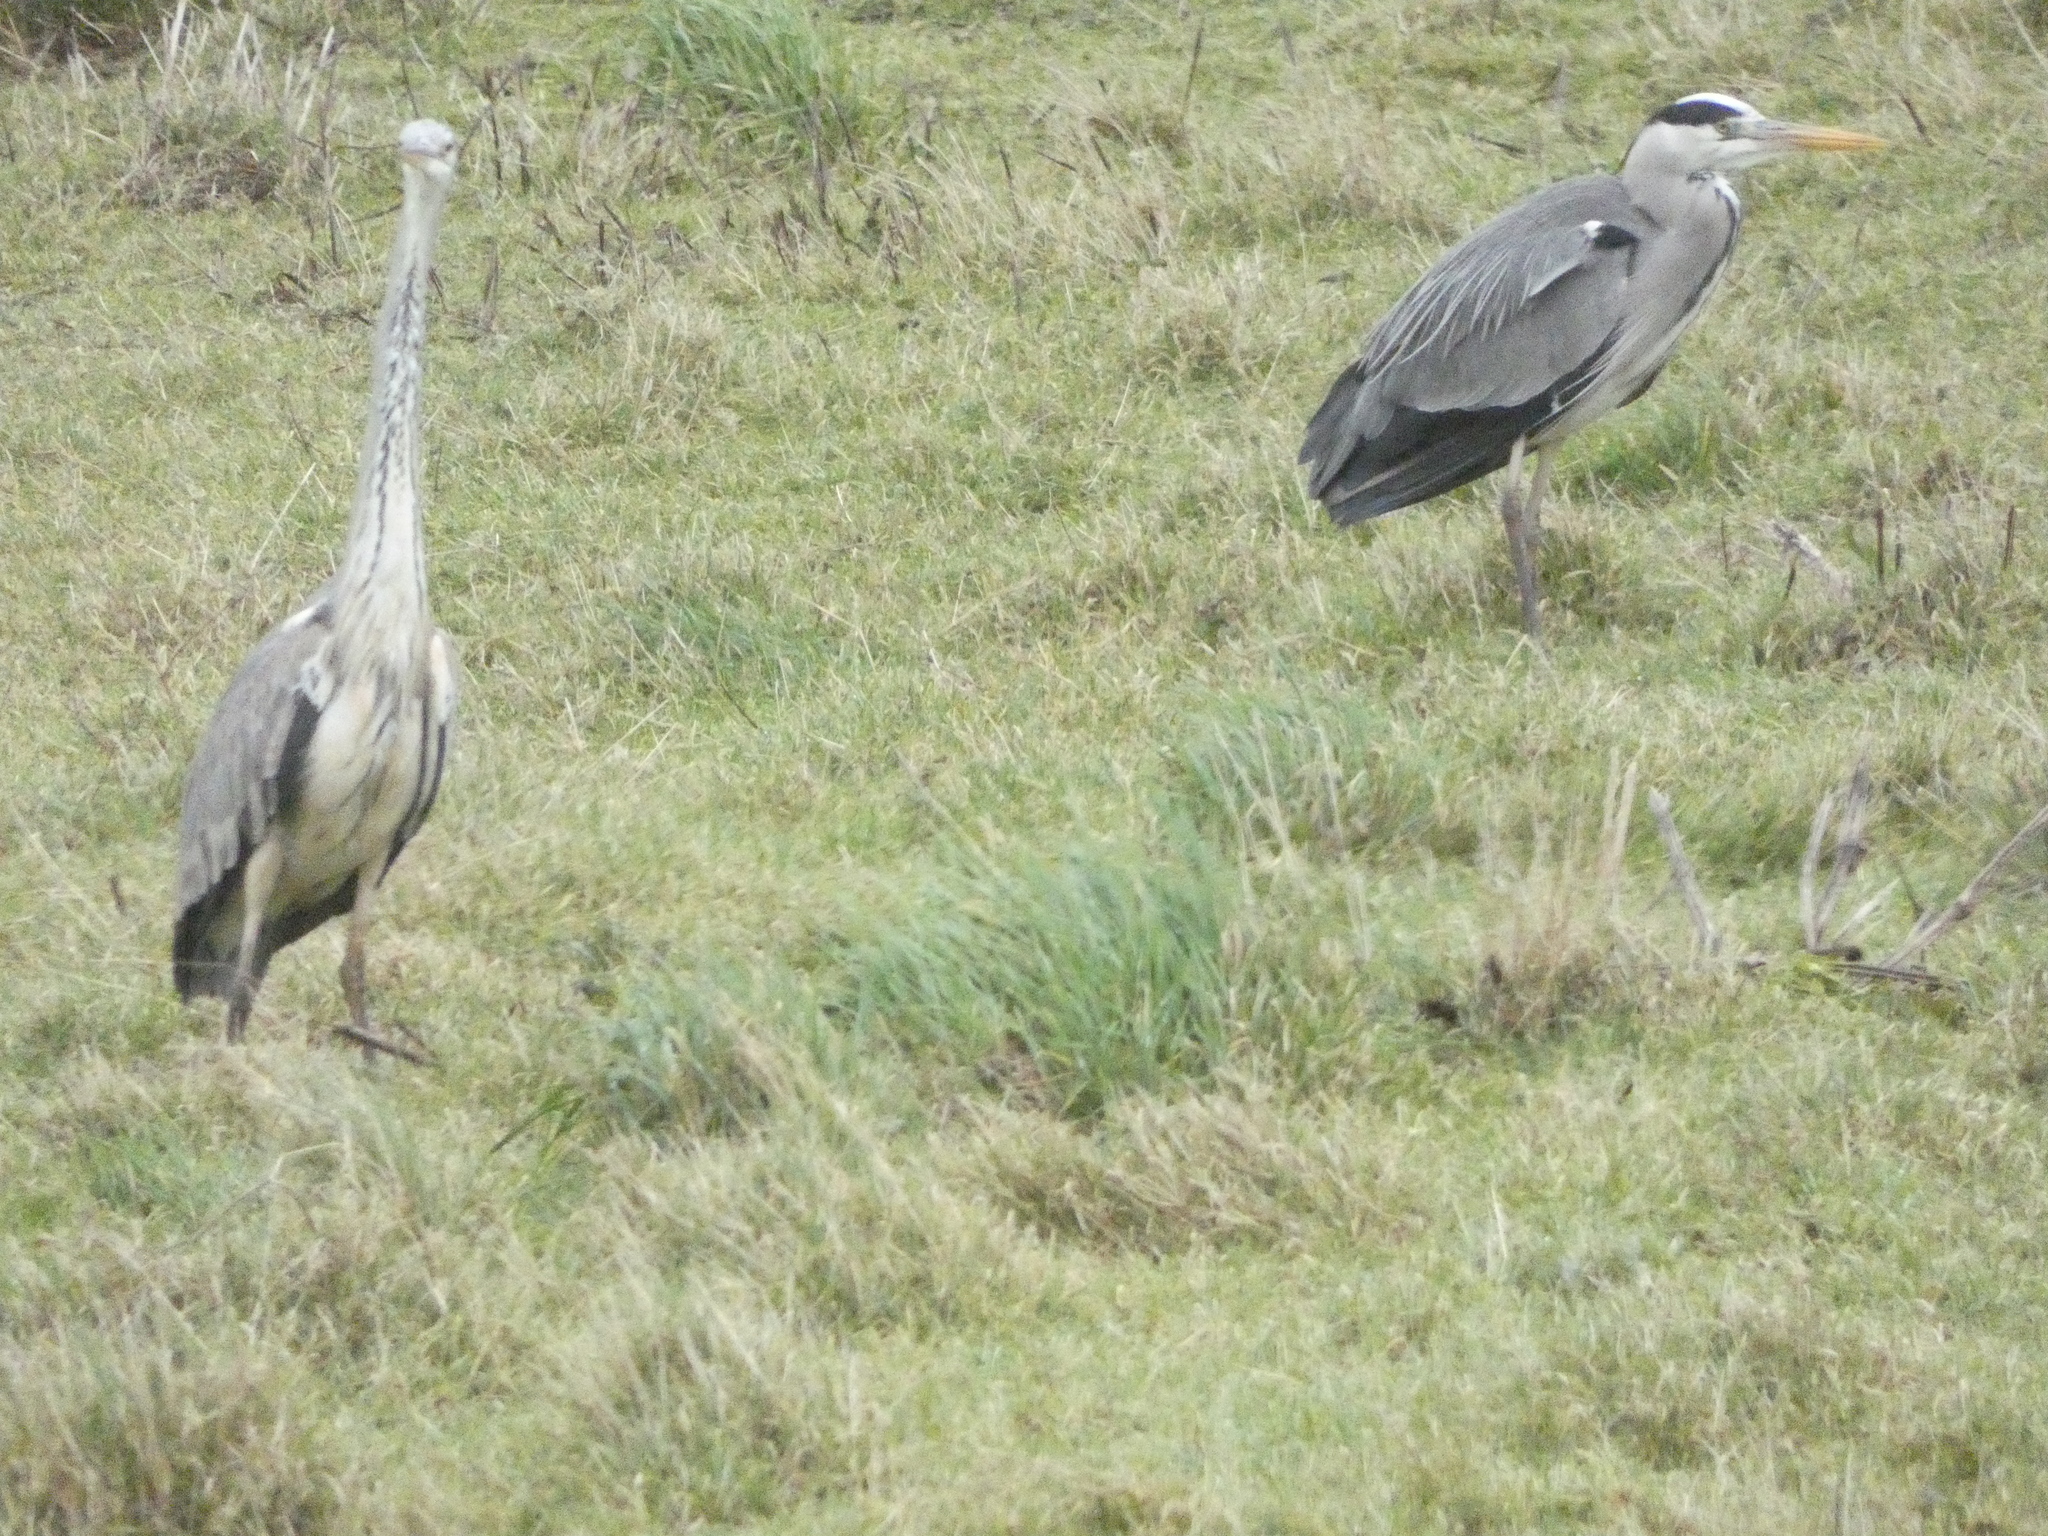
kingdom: Animalia
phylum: Chordata
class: Aves
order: Pelecaniformes
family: Ardeidae
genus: Ardea
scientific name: Ardea cinerea
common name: Grey heron
